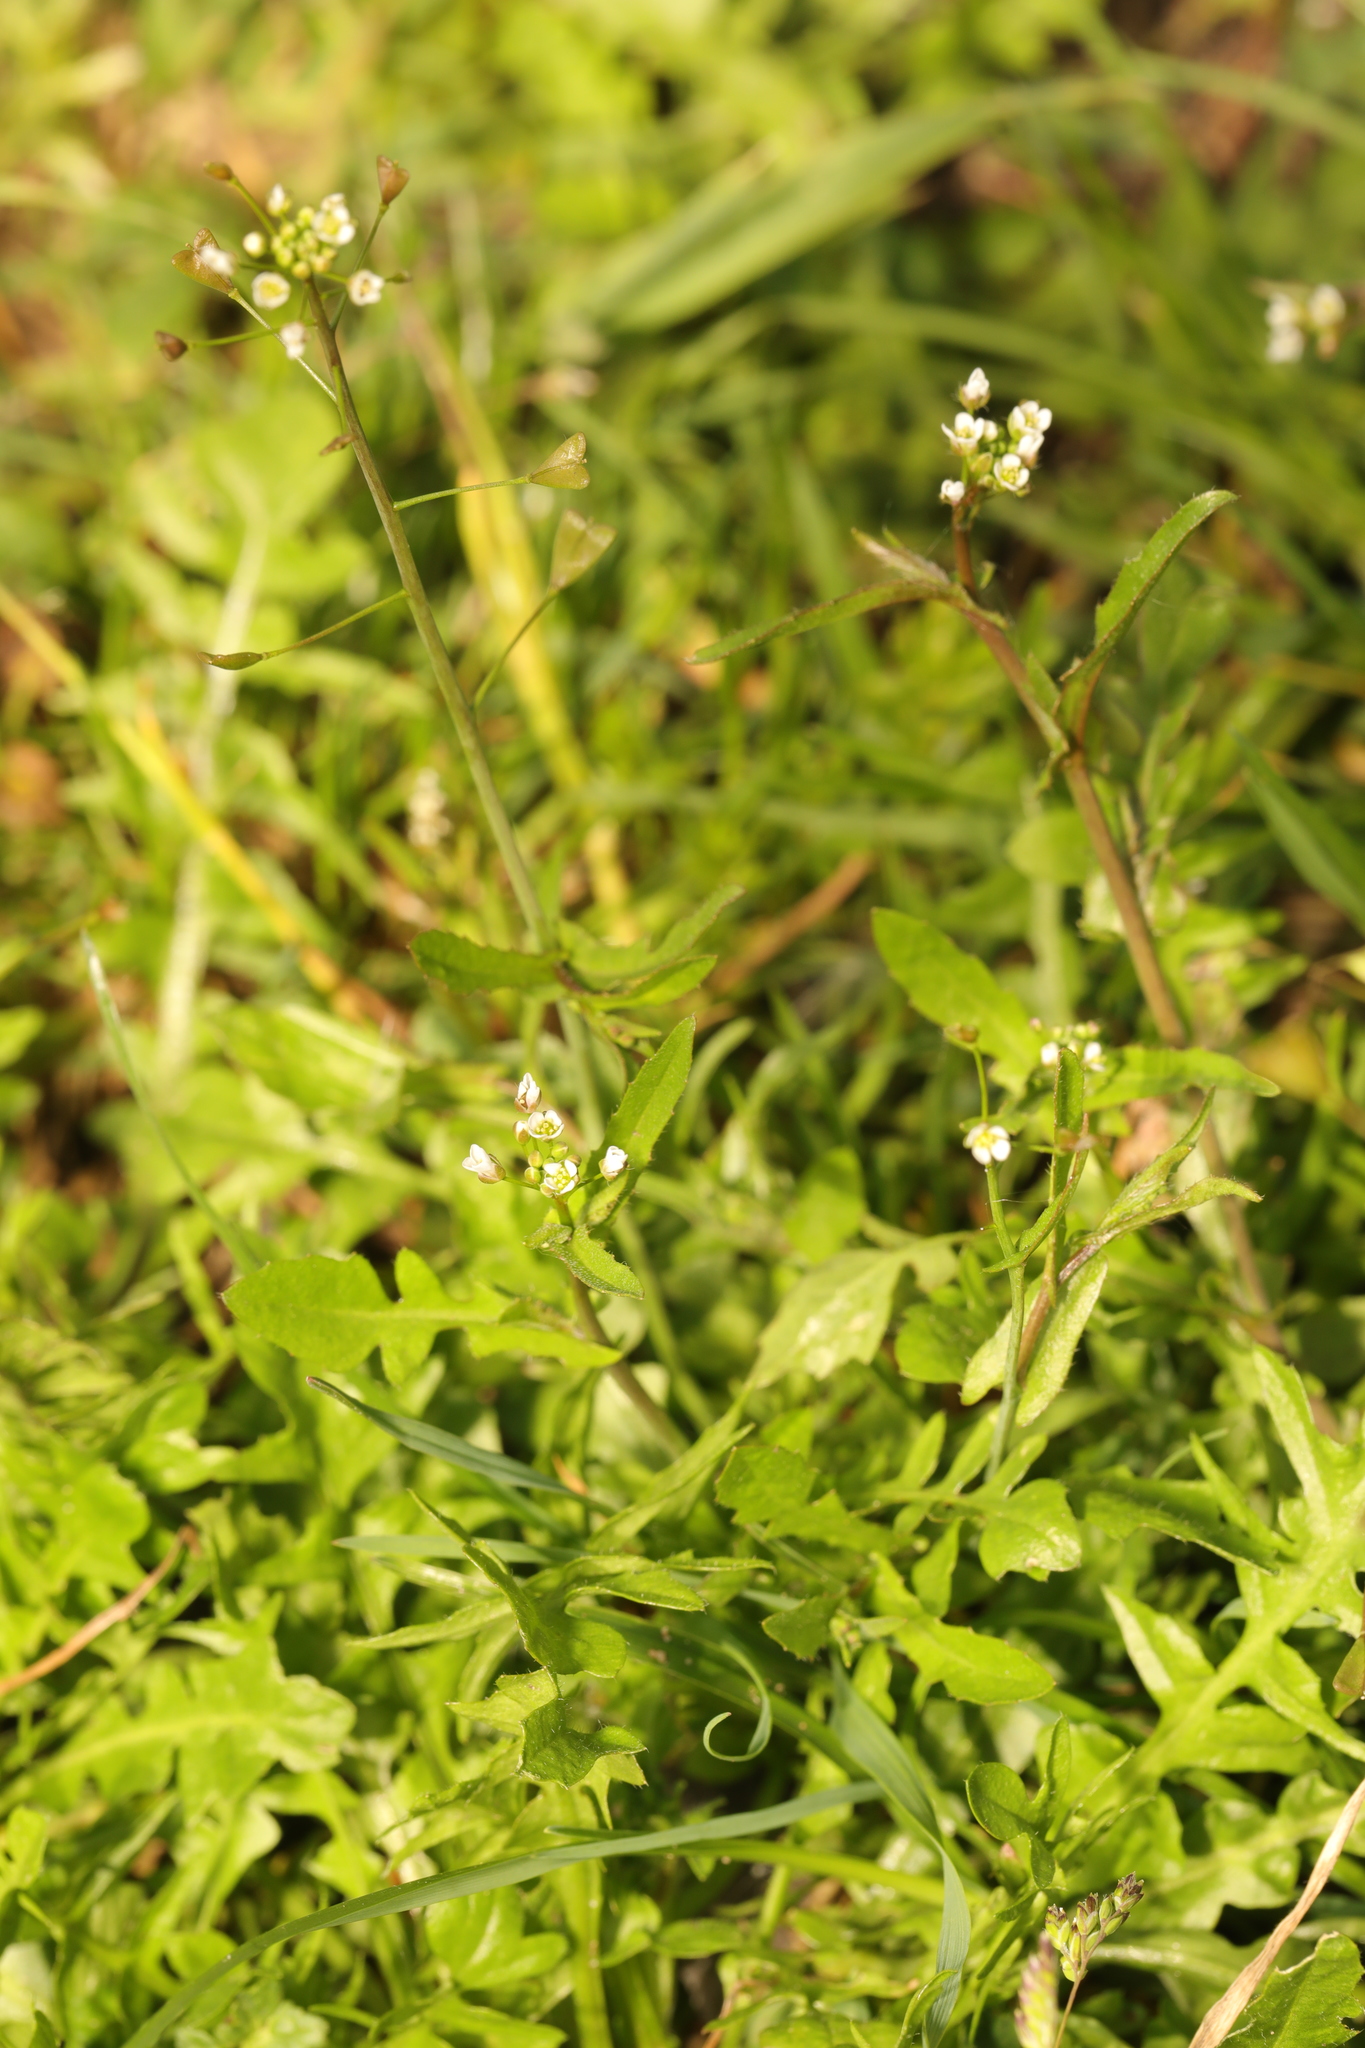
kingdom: Plantae
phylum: Tracheophyta
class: Magnoliopsida
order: Brassicales
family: Brassicaceae
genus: Capsella
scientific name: Capsella bursa-pastoris
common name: Shepherd's purse
